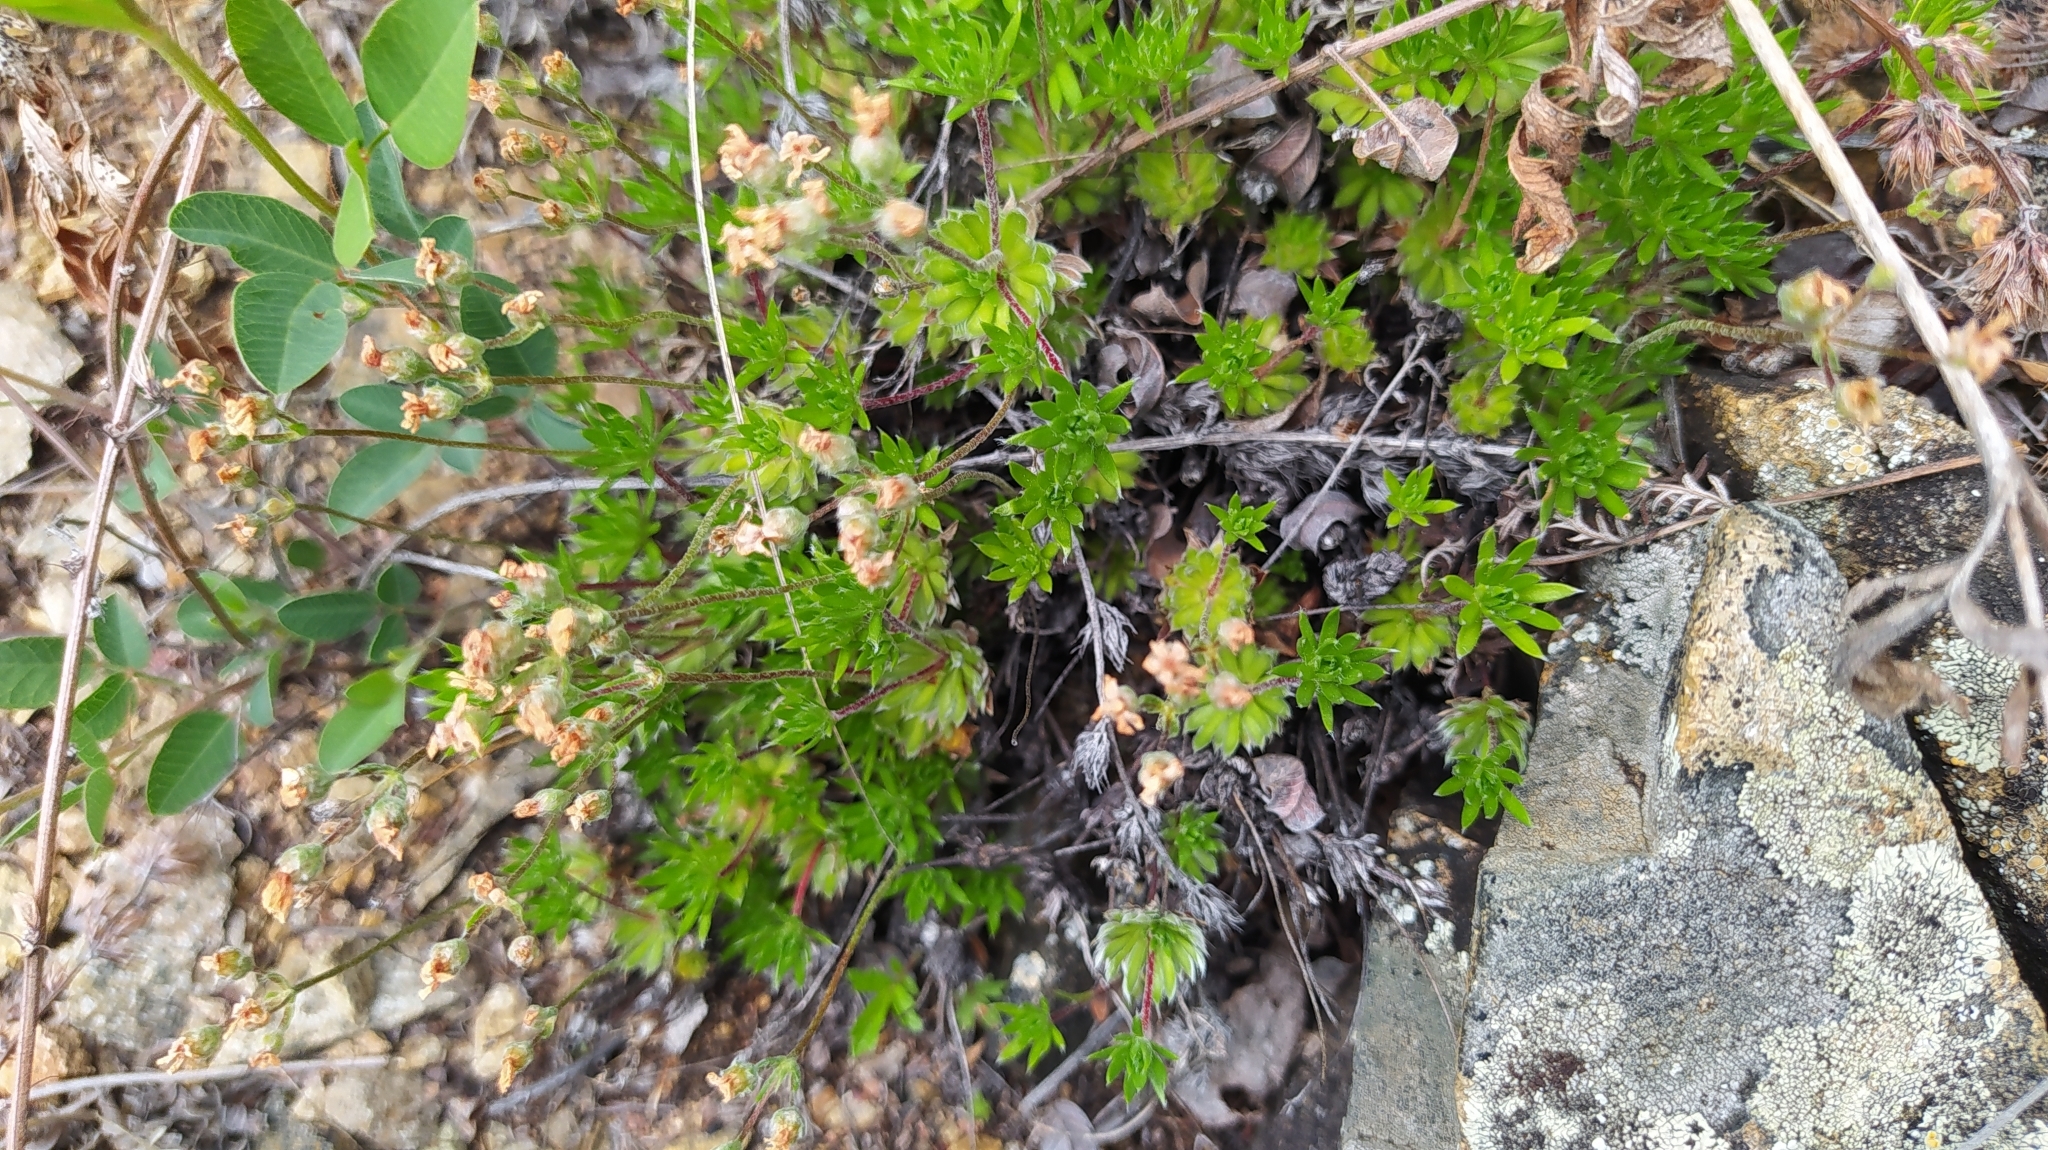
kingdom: Plantae
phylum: Tracheophyta
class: Magnoliopsida
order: Ericales
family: Primulaceae
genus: Androsace
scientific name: Androsace incana
